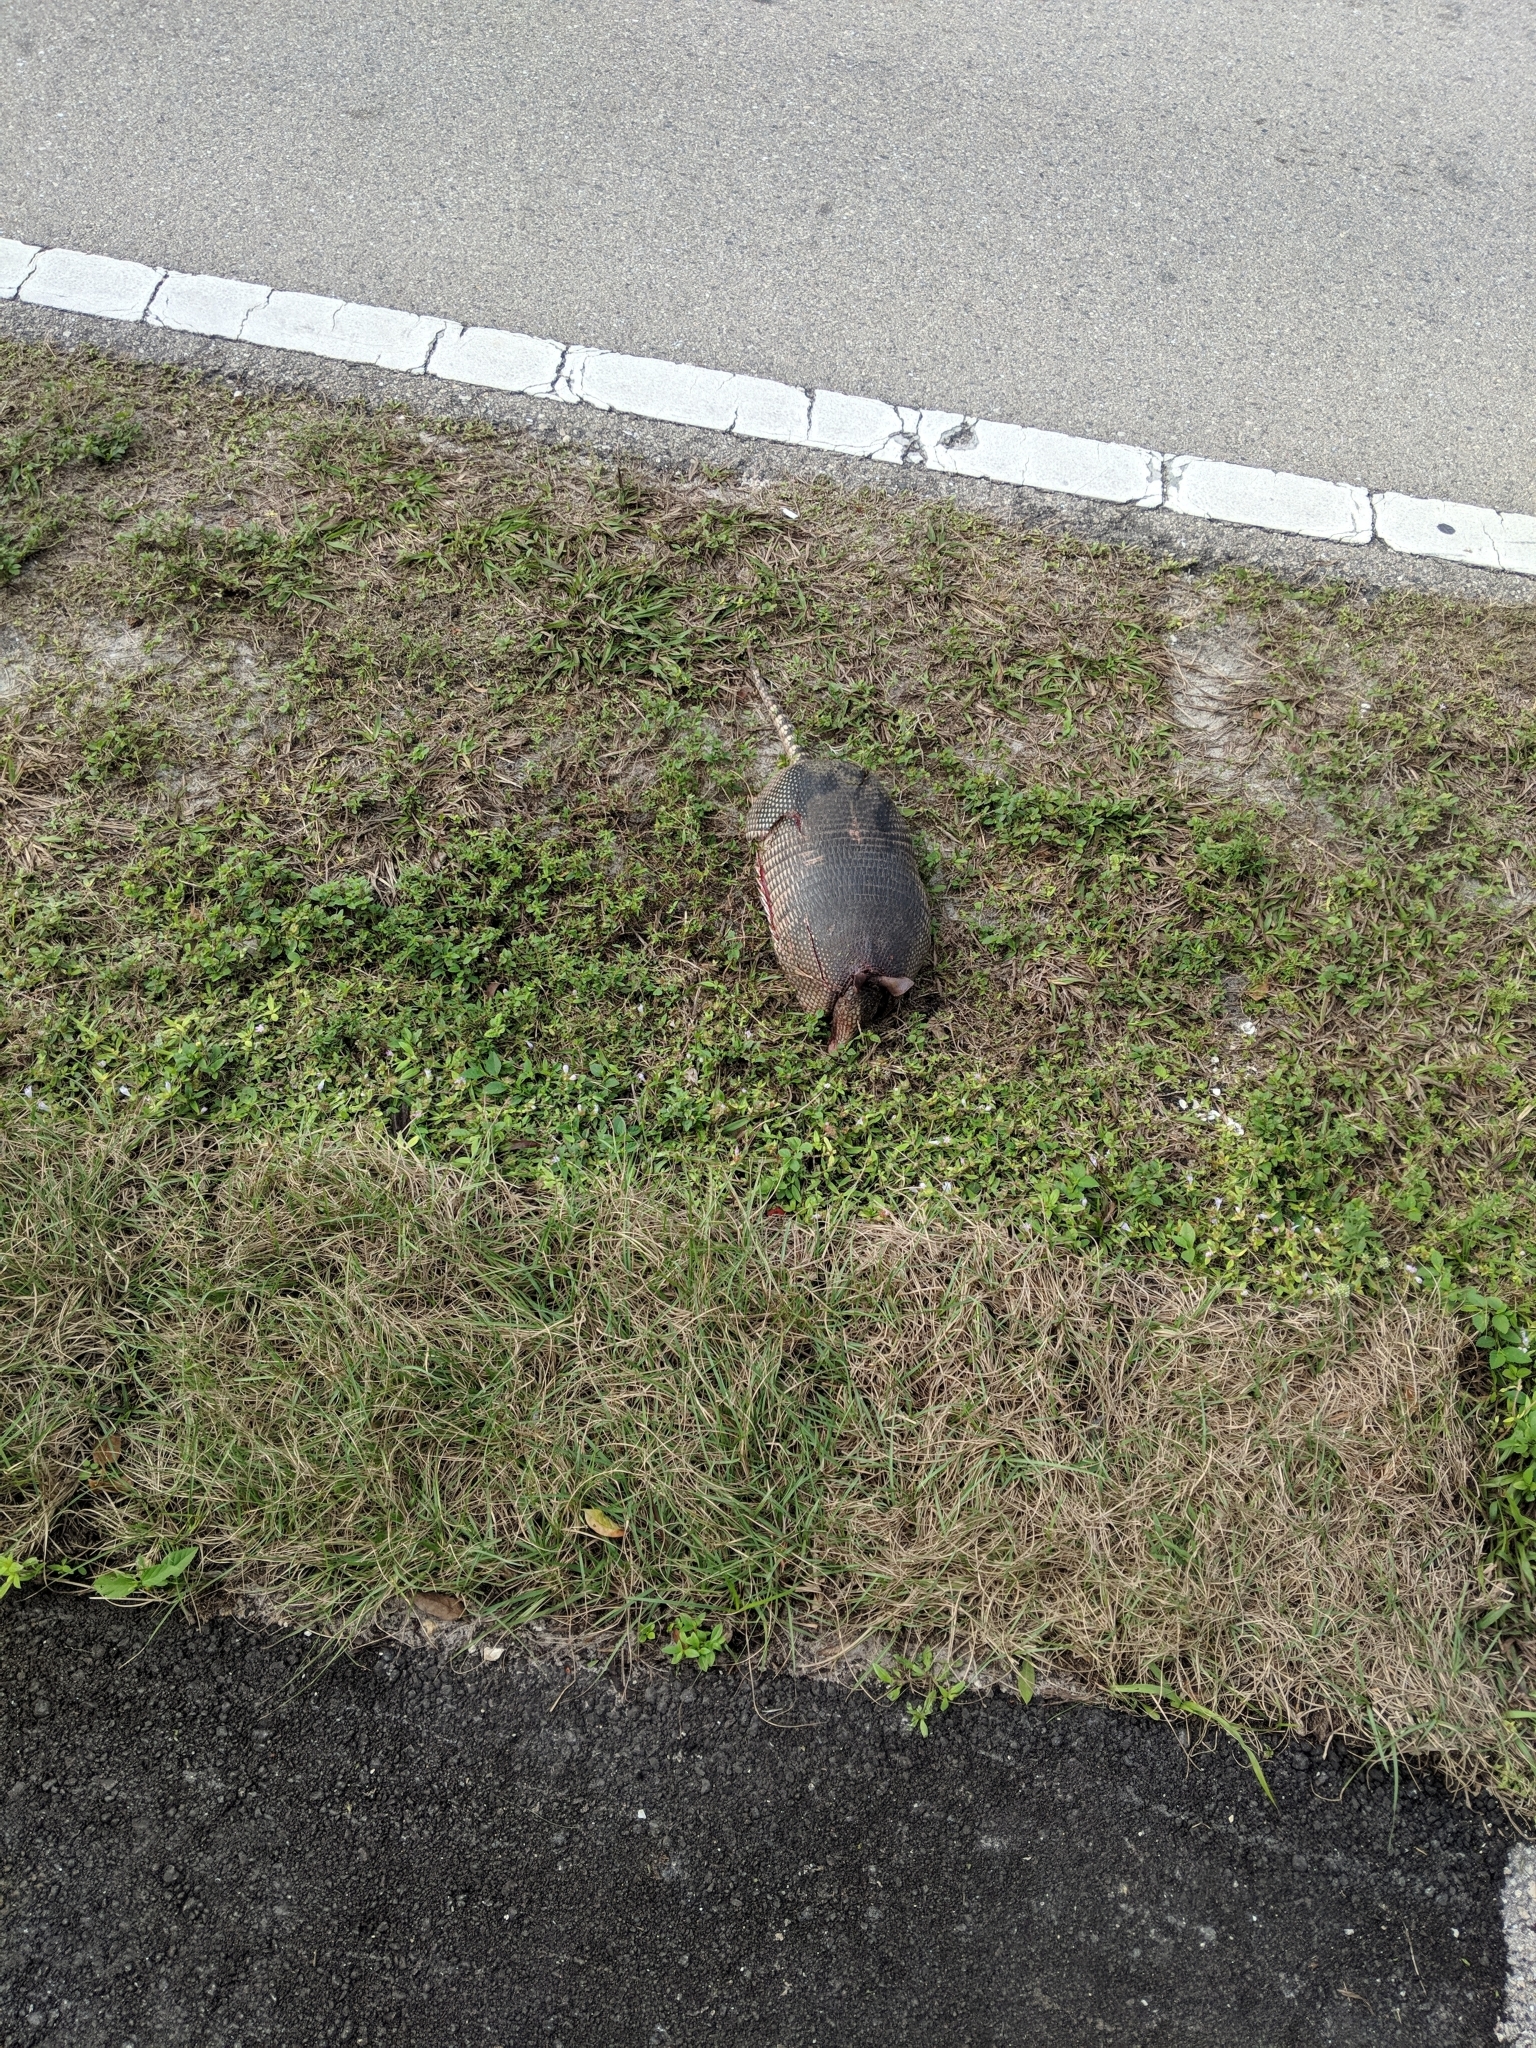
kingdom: Animalia
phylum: Chordata
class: Mammalia
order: Cingulata
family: Dasypodidae
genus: Dasypus
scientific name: Dasypus novemcinctus
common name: Nine-banded armadillo
